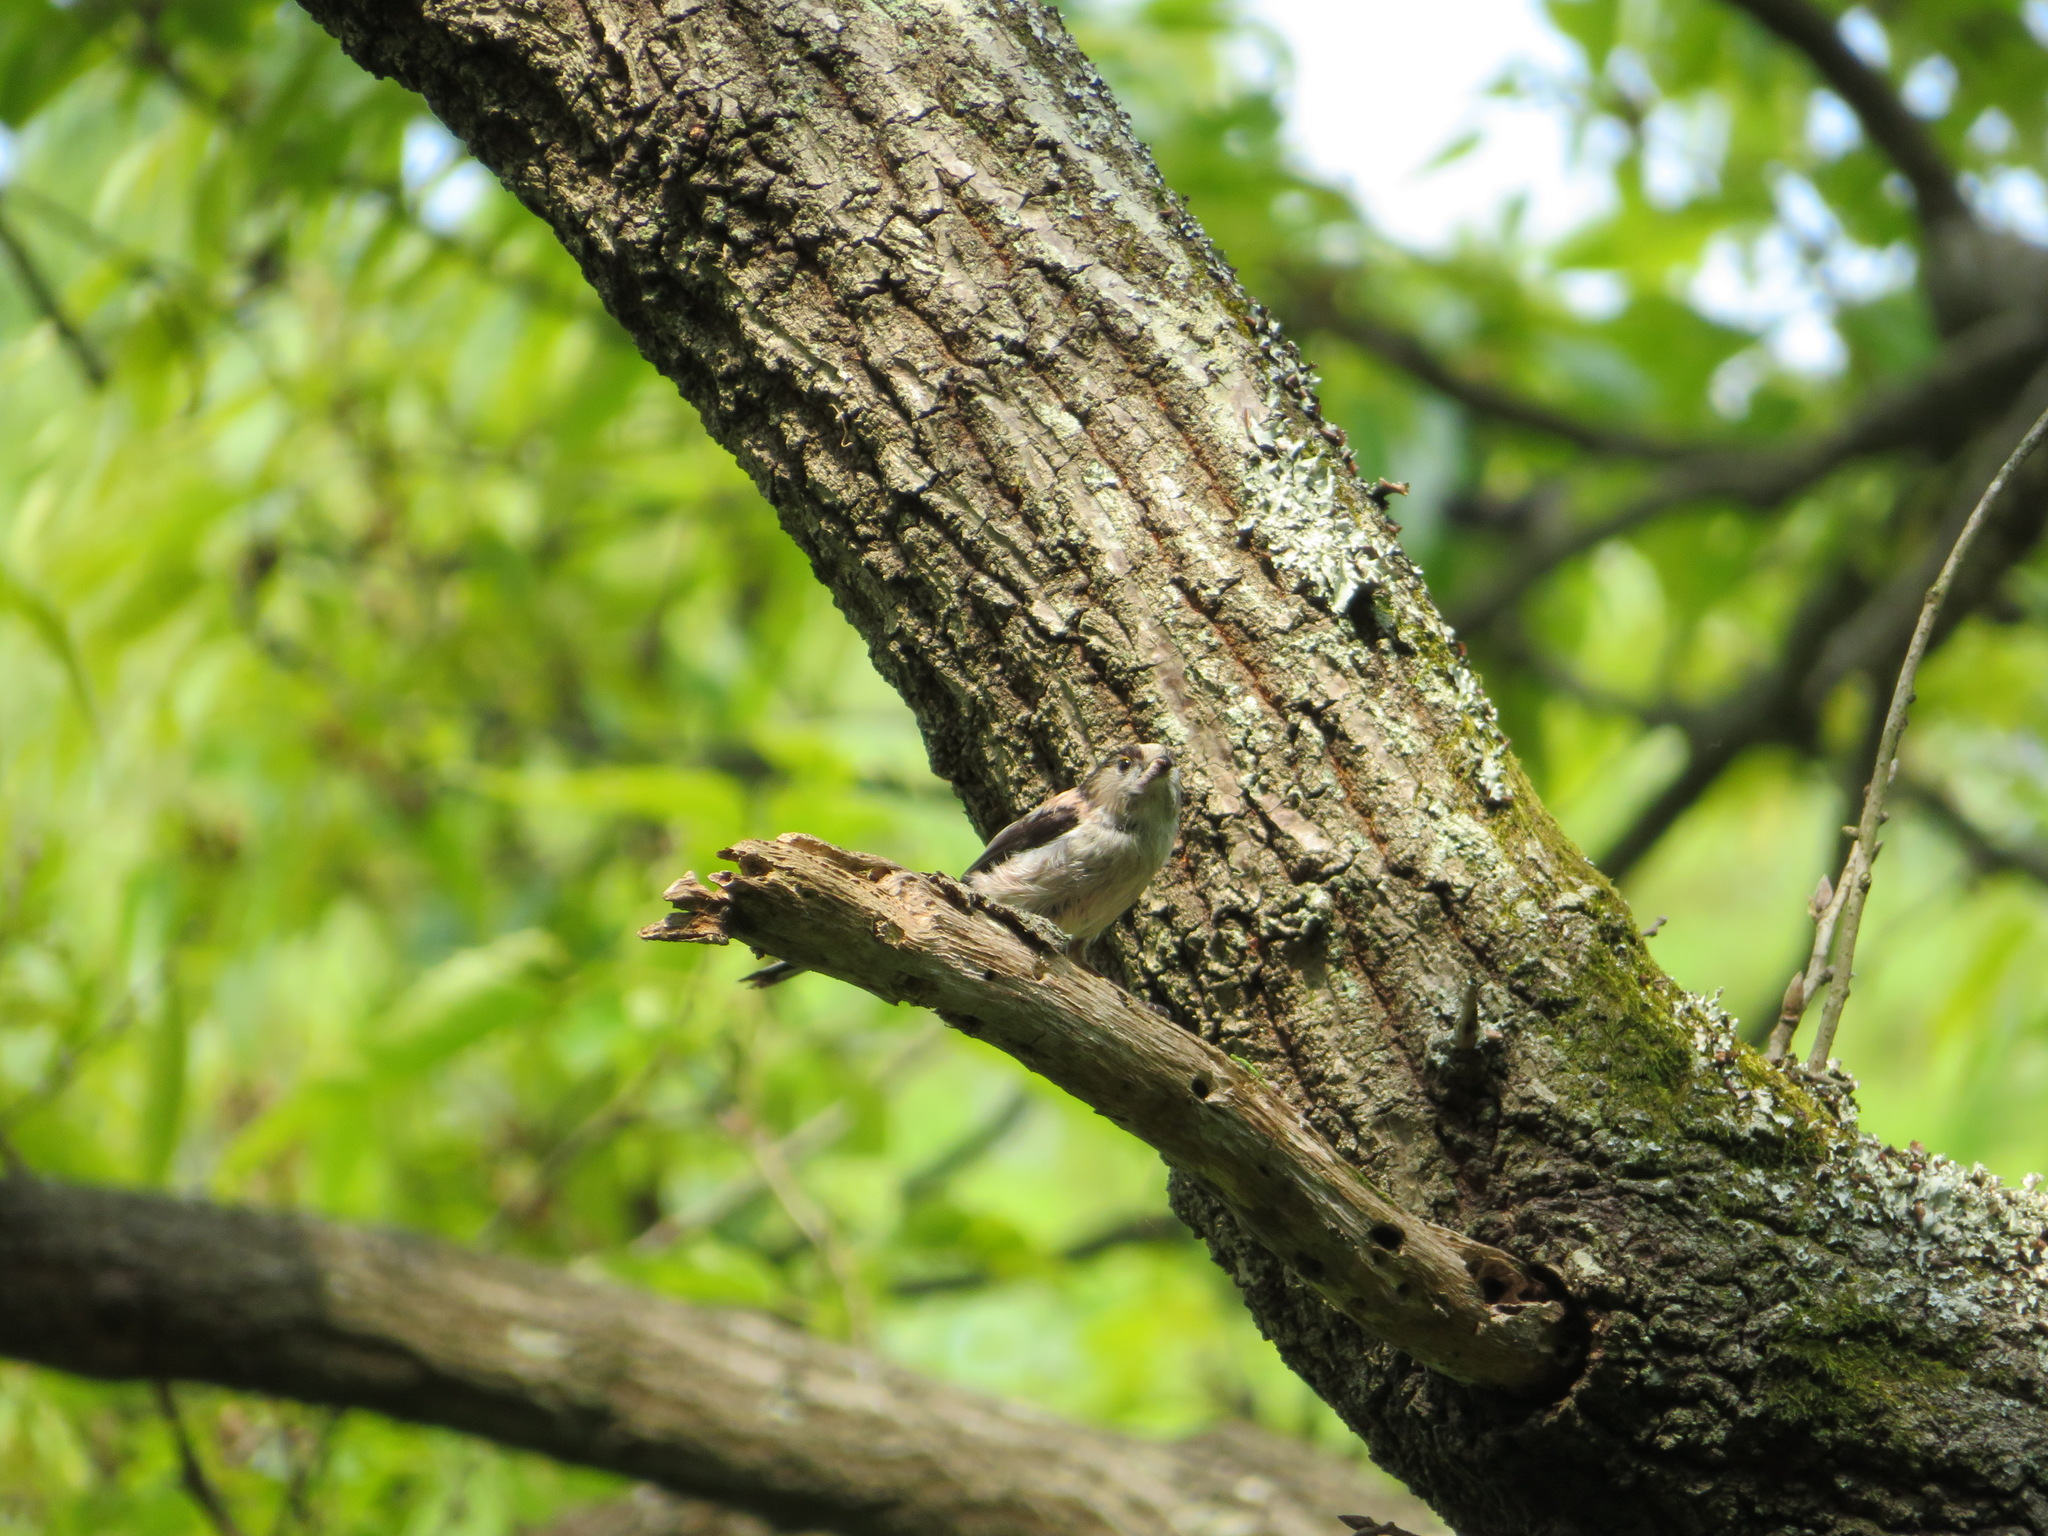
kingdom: Animalia
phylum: Chordata
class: Aves
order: Passeriformes
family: Aegithalidae
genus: Aegithalos
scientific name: Aegithalos caudatus
